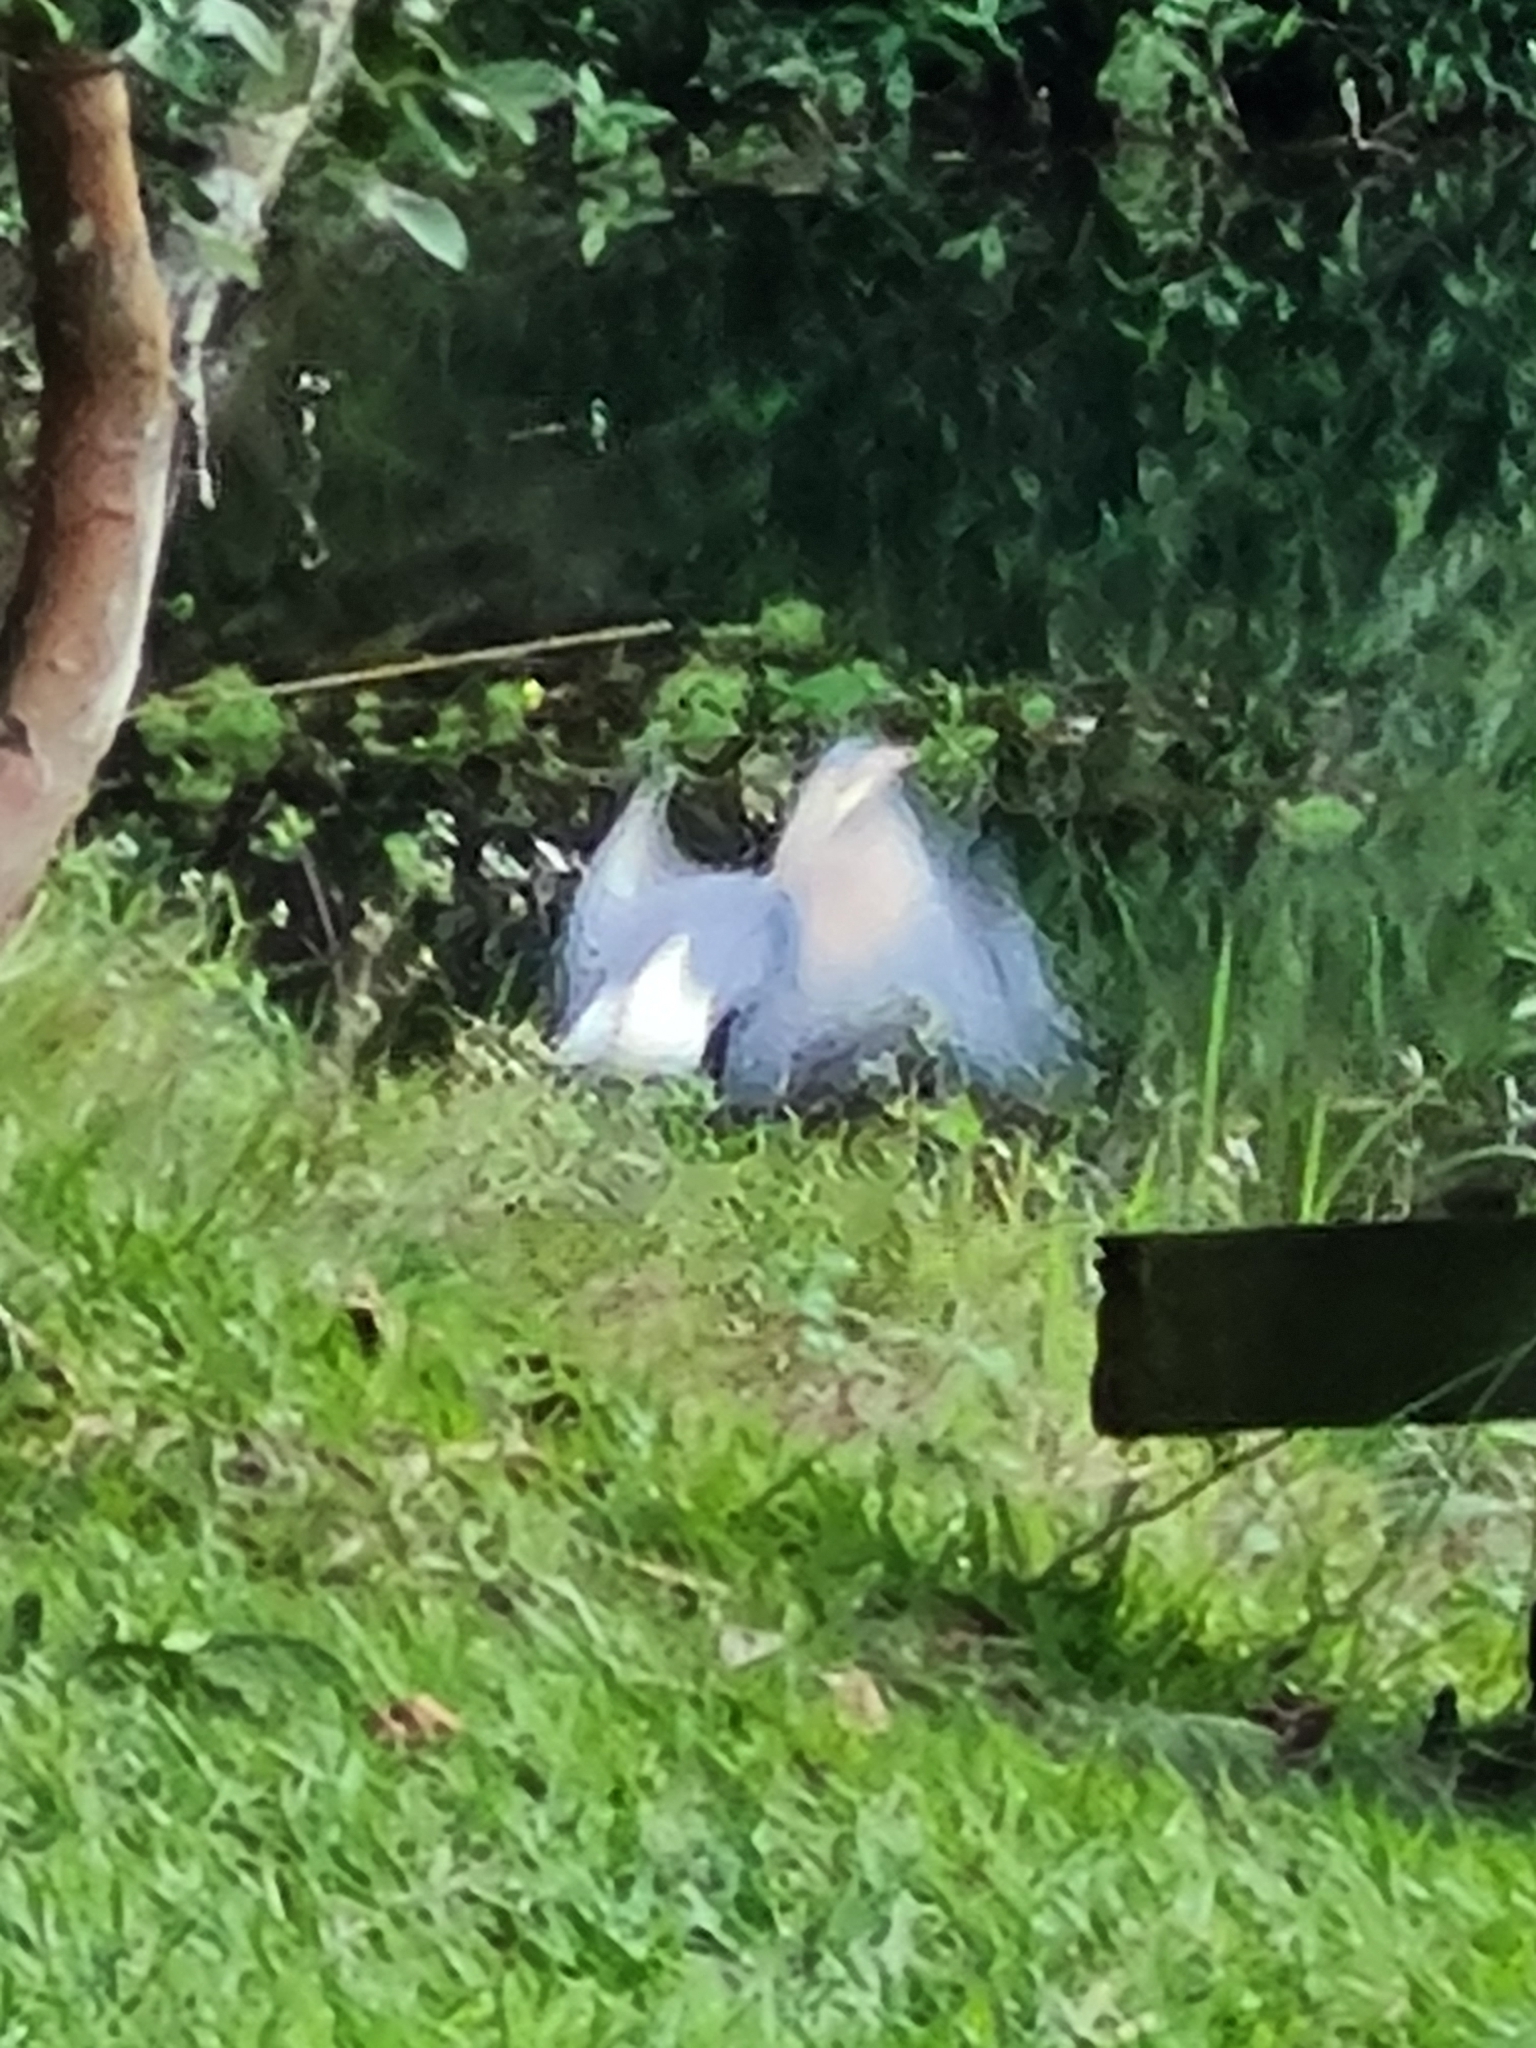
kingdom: Animalia
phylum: Chordata
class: Aves
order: Pelecaniformes
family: Ardeidae
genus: Syrigma
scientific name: Syrigma sibilatrix
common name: Whistling heron
